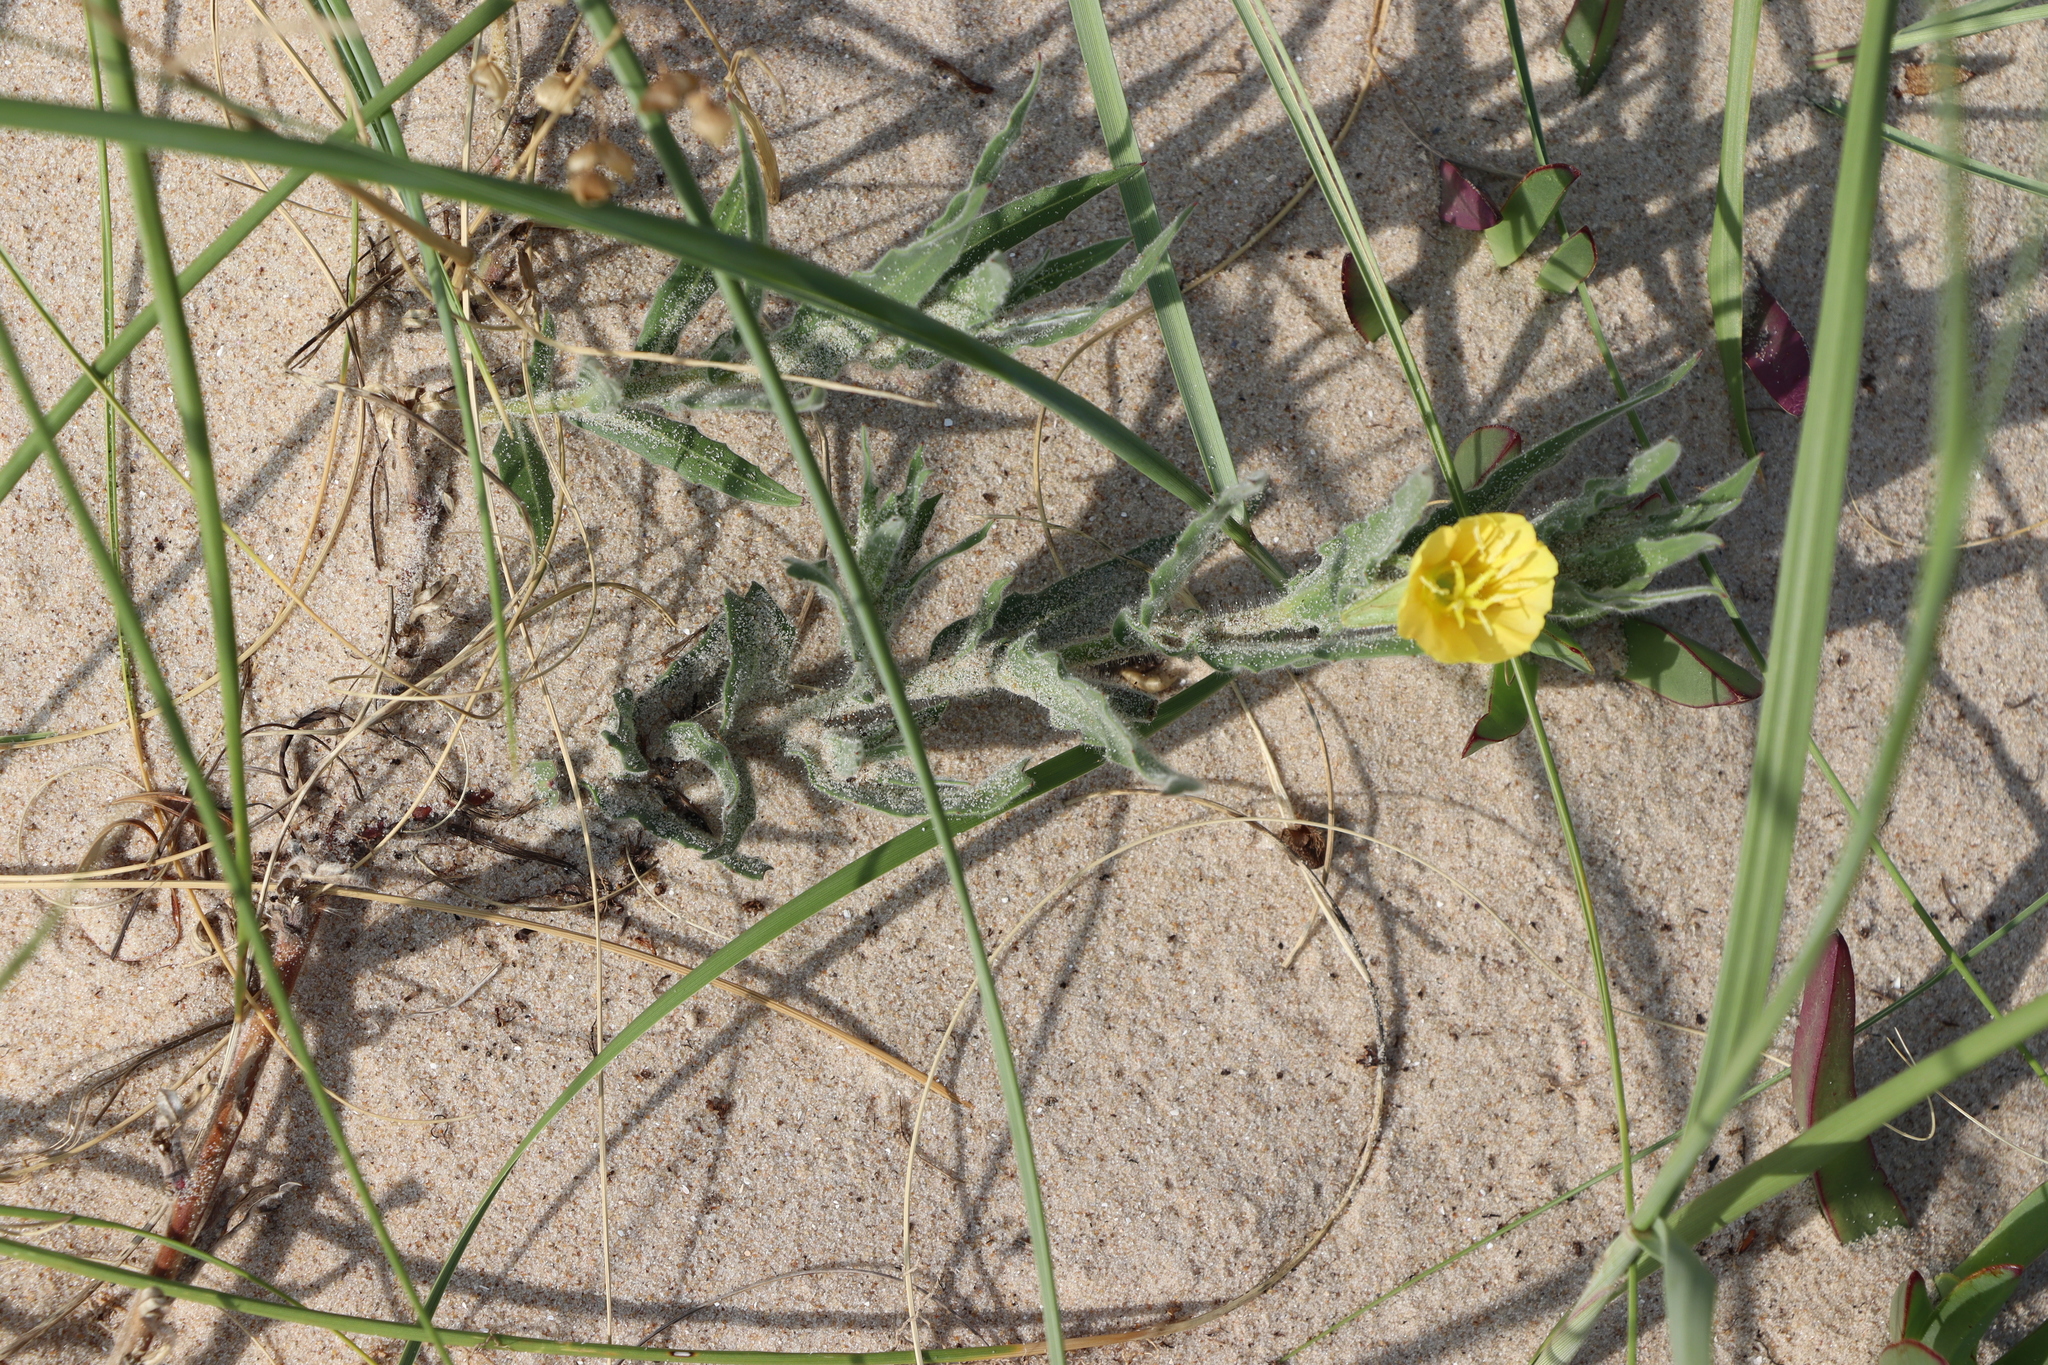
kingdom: Plantae
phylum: Tracheophyta
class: Magnoliopsida
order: Myrtales
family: Onagraceae
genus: Oenothera
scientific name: Oenothera mollissima
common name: Argentine evening primrose
